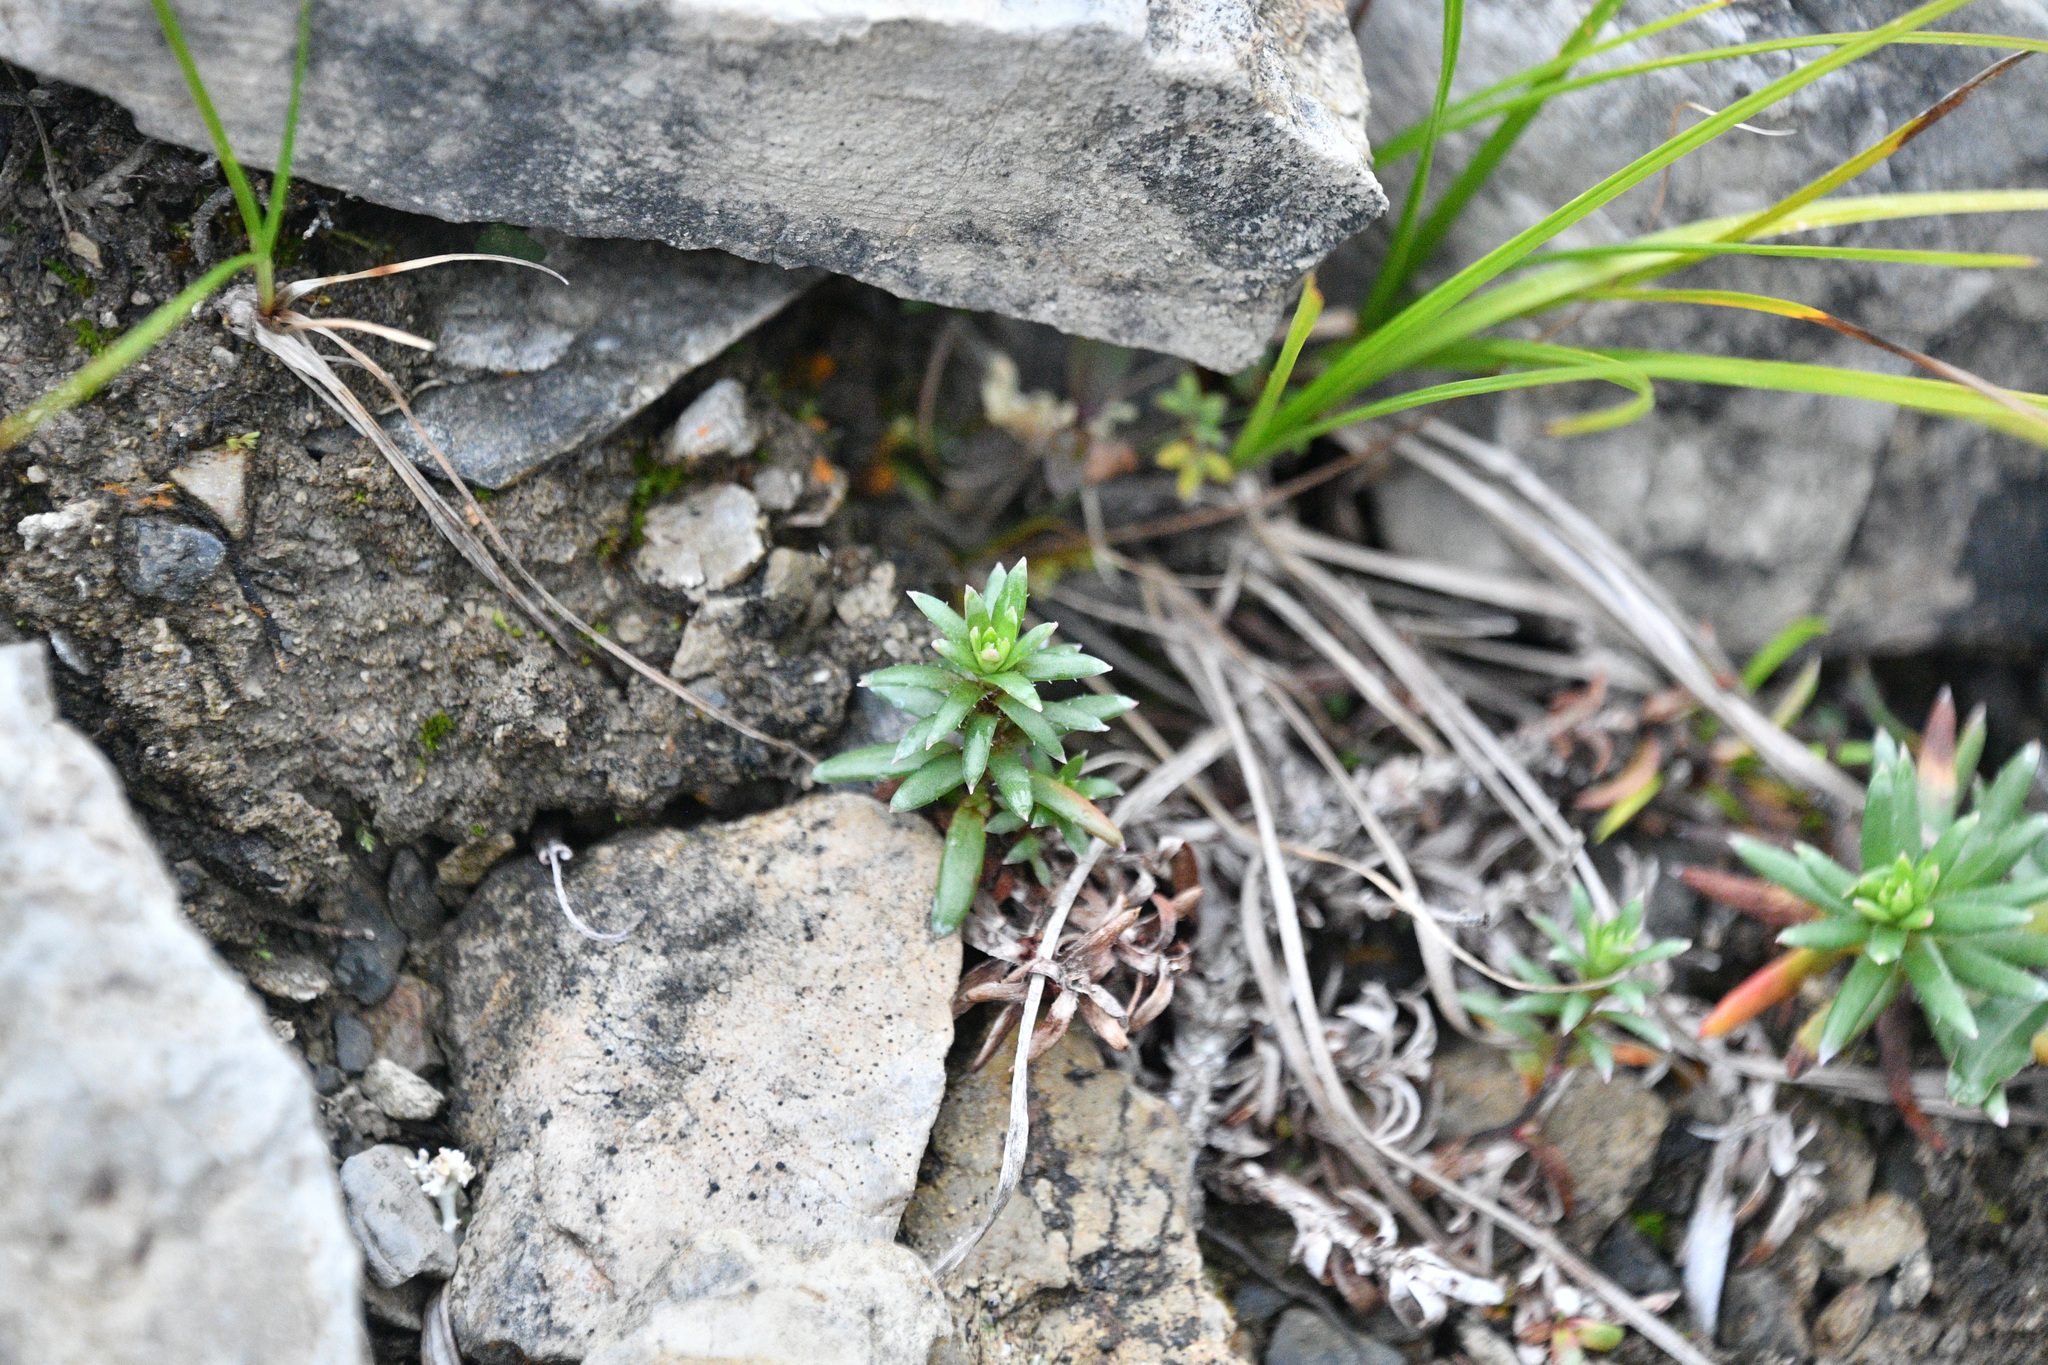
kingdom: Plantae
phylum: Tracheophyta
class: Magnoliopsida
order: Saxifragales
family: Saxifragaceae
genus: Saxifraga
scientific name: Saxifraga aizoides
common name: Yellow mountain saxifrage
